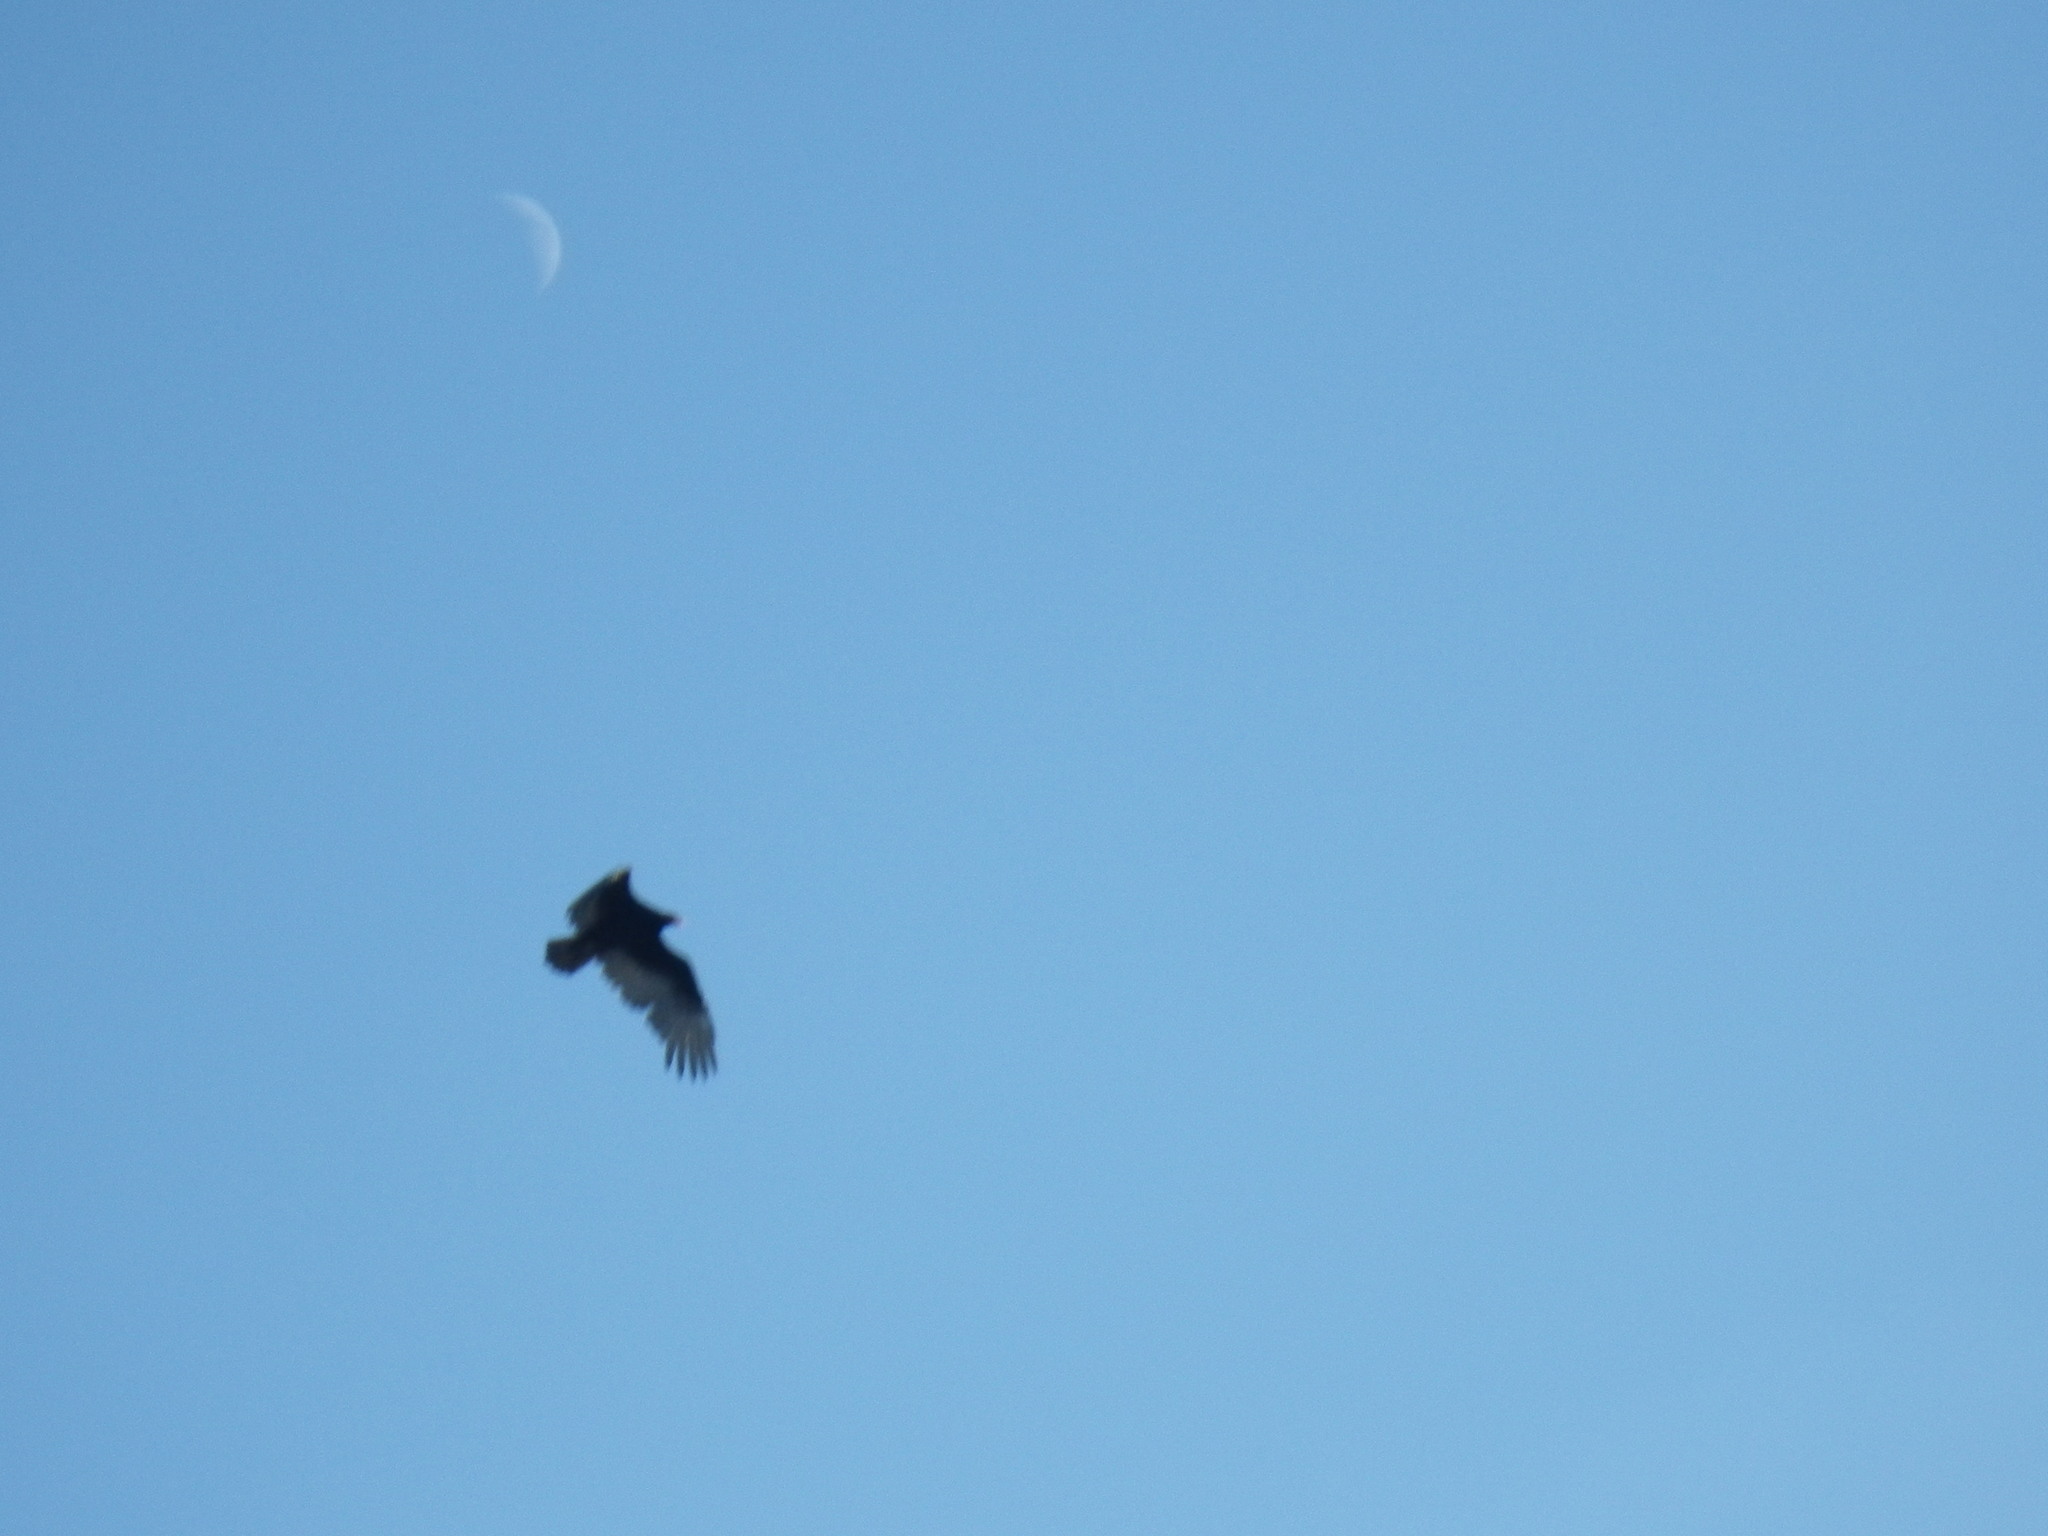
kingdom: Animalia
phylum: Chordata
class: Aves
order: Accipitriformes
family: Cathartidae
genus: Cathartes
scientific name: Cathartes aura
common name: Turkey vulture
